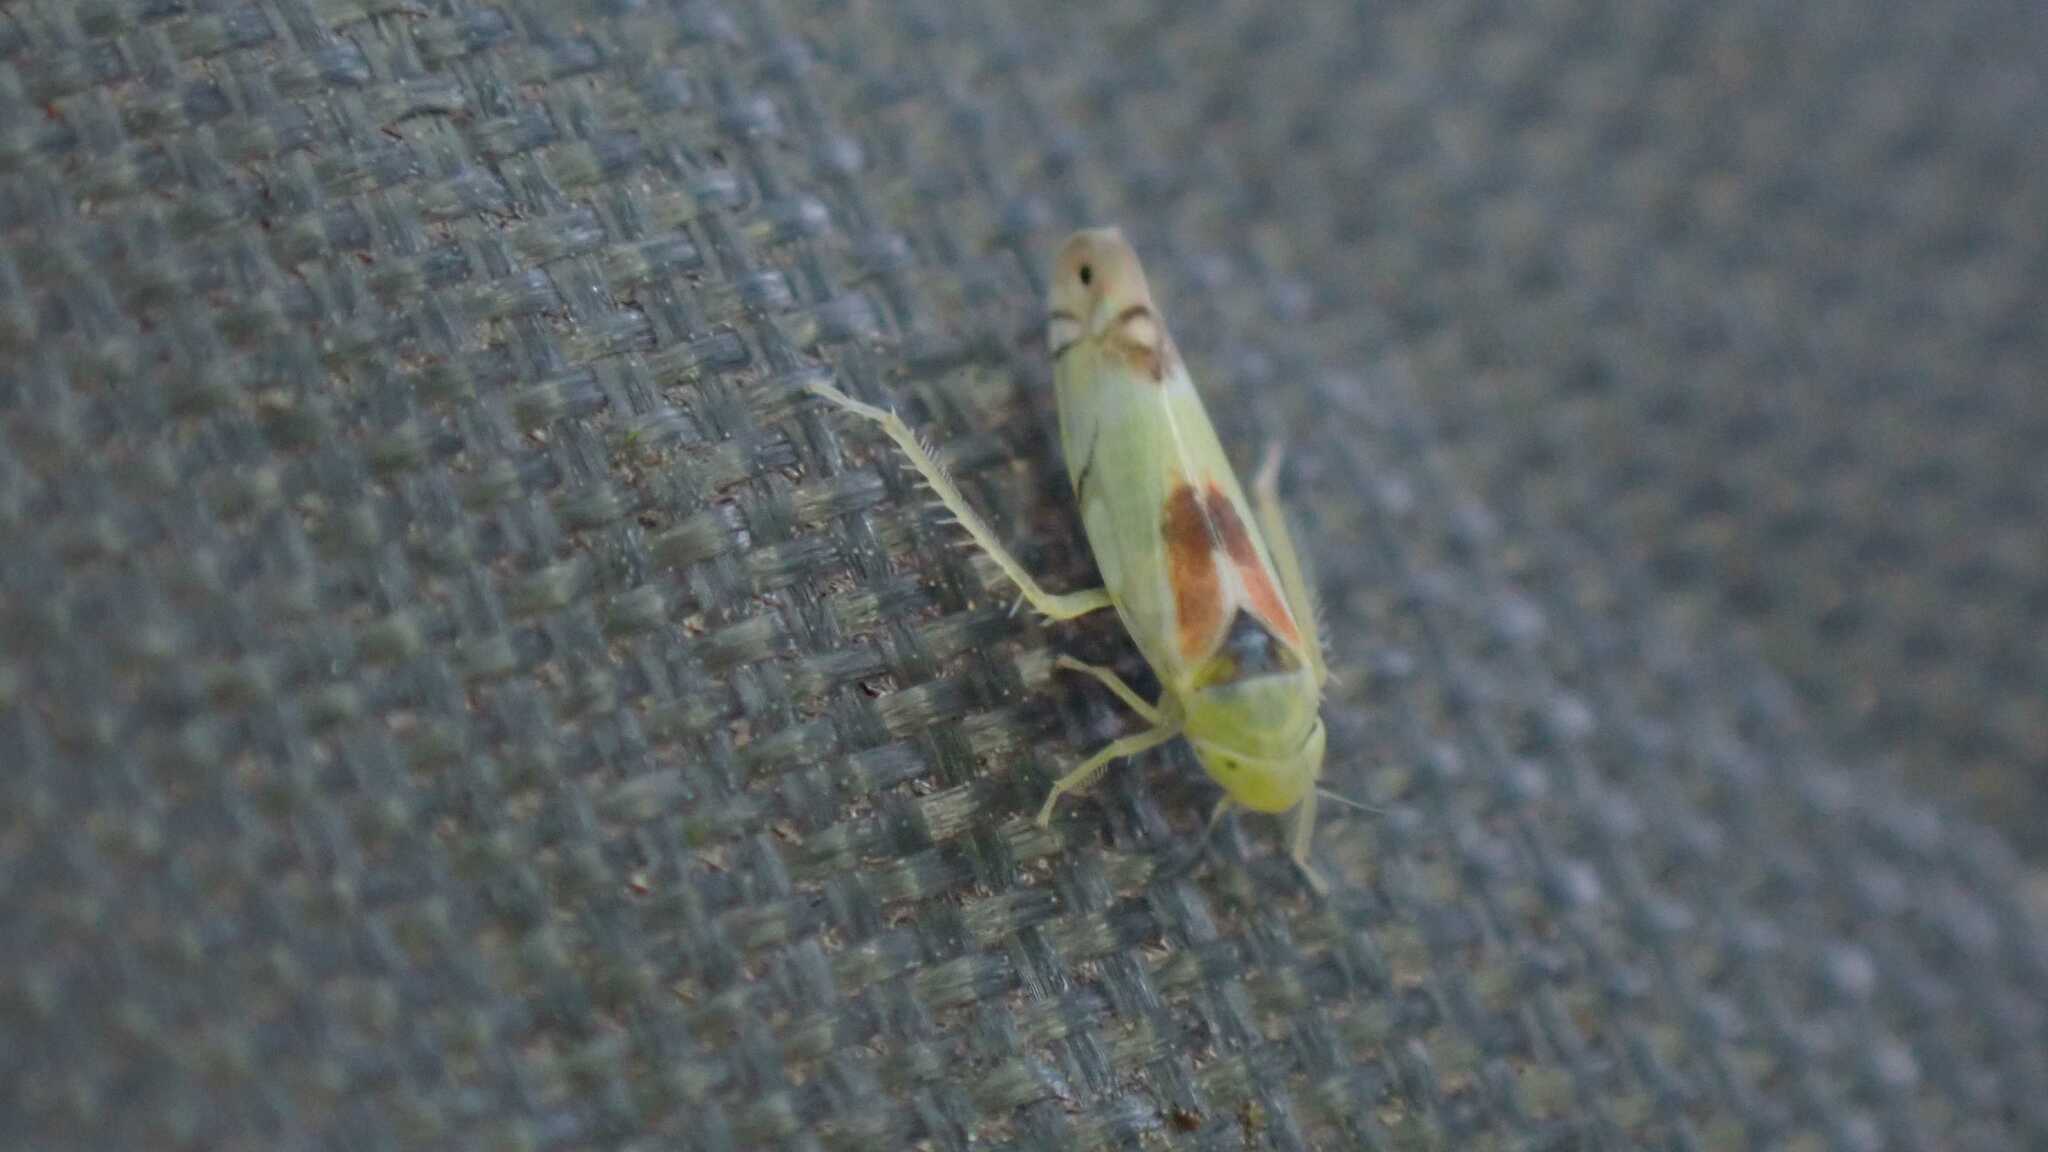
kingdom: Animalia
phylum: Arthropoda
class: Insecta
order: Hemiptera
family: Cicadellidae
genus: Zyginella
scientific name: Zyginella pulchra
